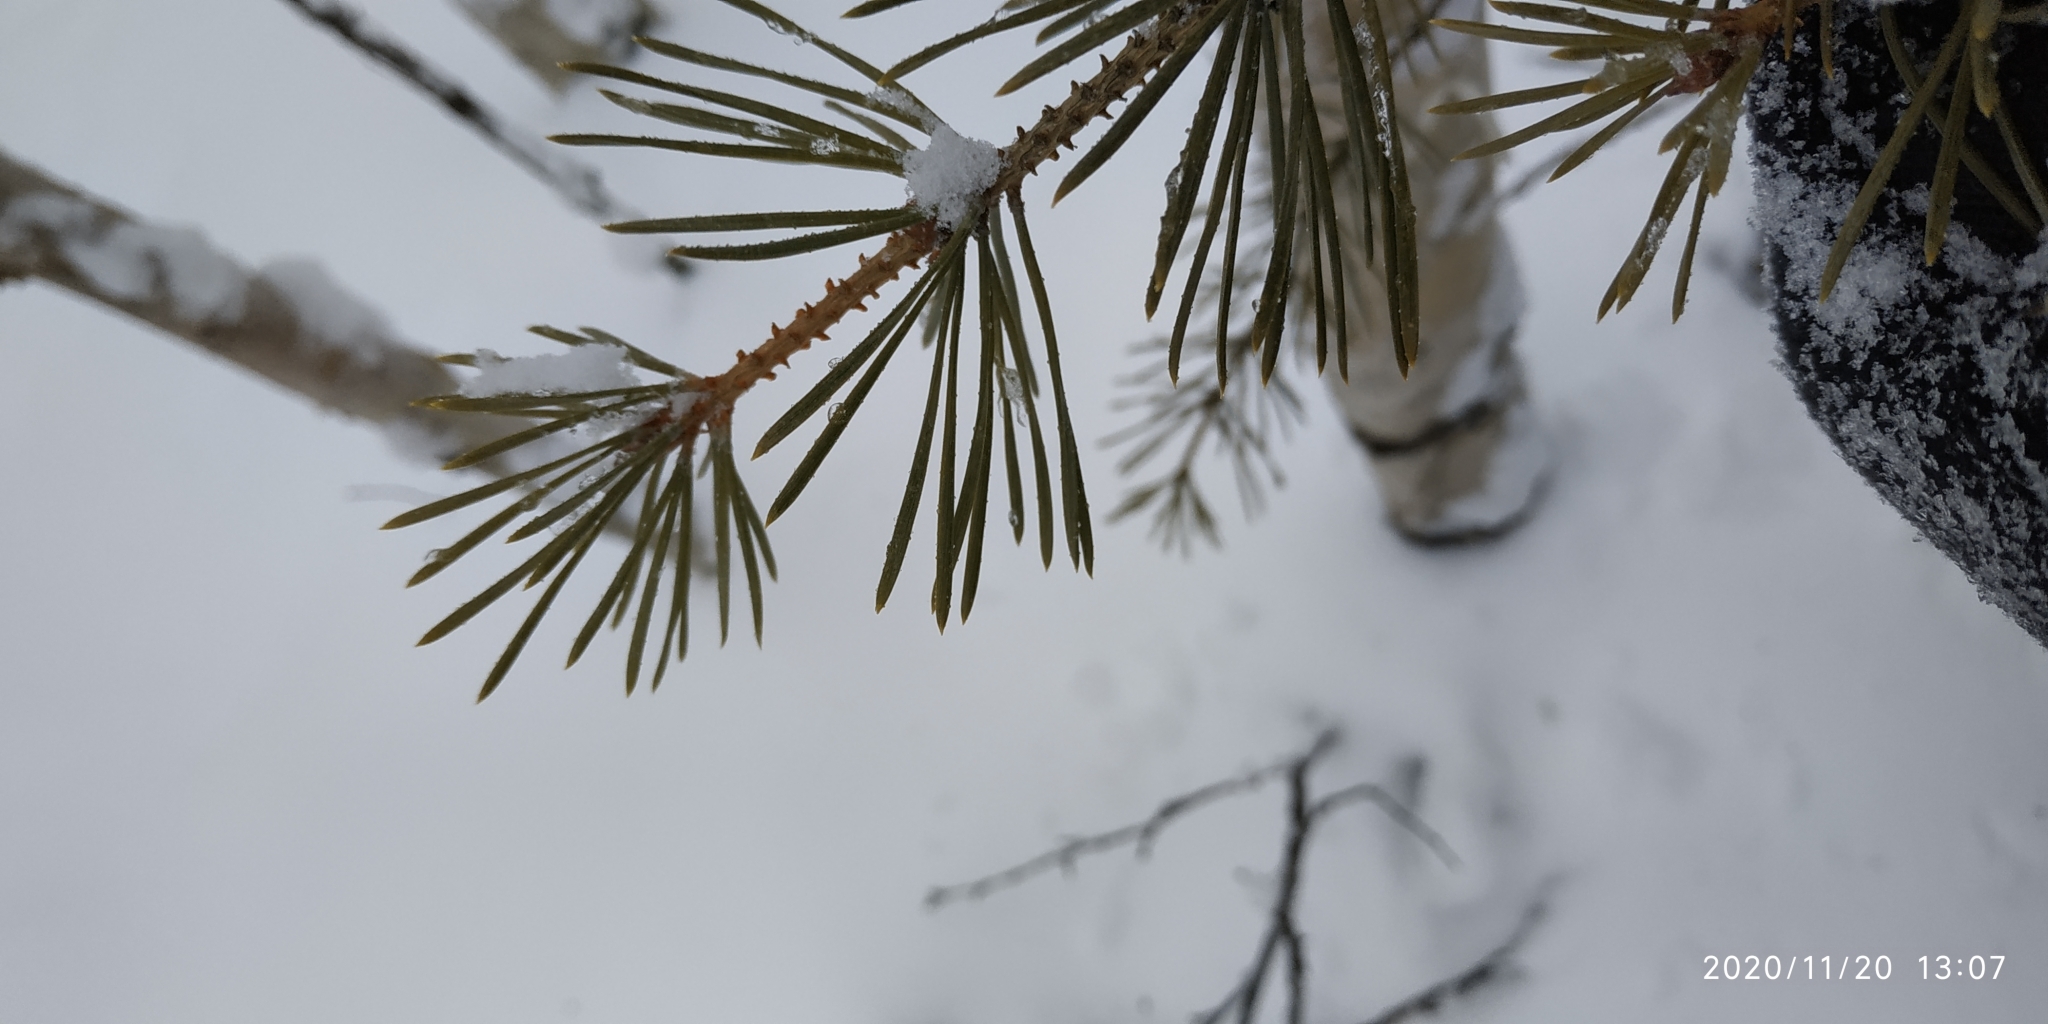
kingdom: Plantae
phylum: Tracheophyta
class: Pinopsida
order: Pinales
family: Pinaceae
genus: Larix
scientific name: Larix sibirica
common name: Siberian larch
